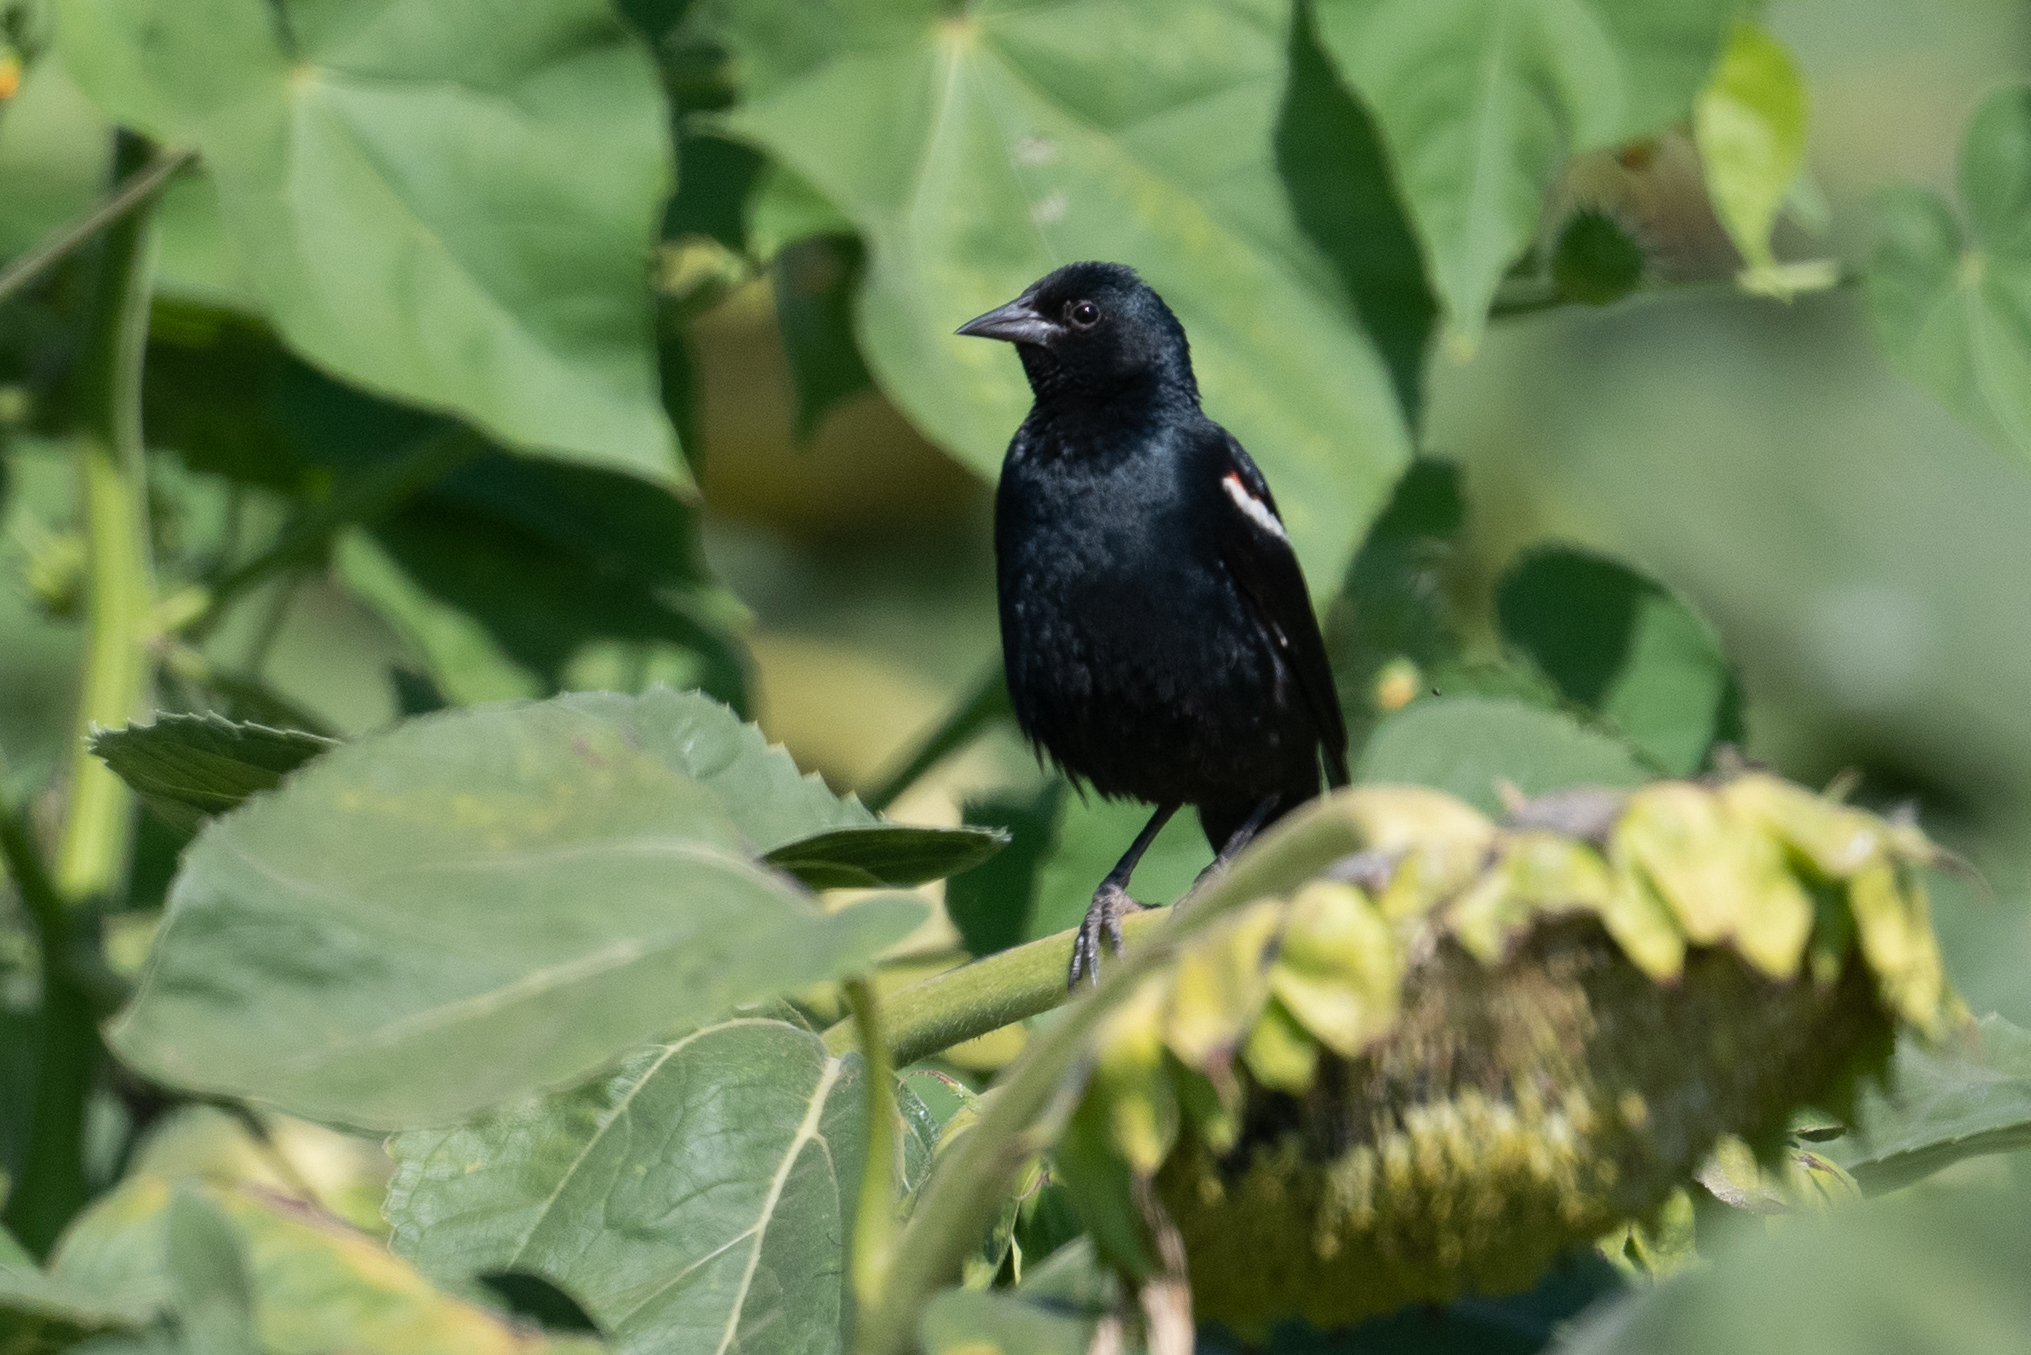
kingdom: Animalia
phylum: Chordata
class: Aves
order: Passeriformes
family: Icteridae
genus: Agelaius
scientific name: Agelaius tricolor
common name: Tricolored blackbird
